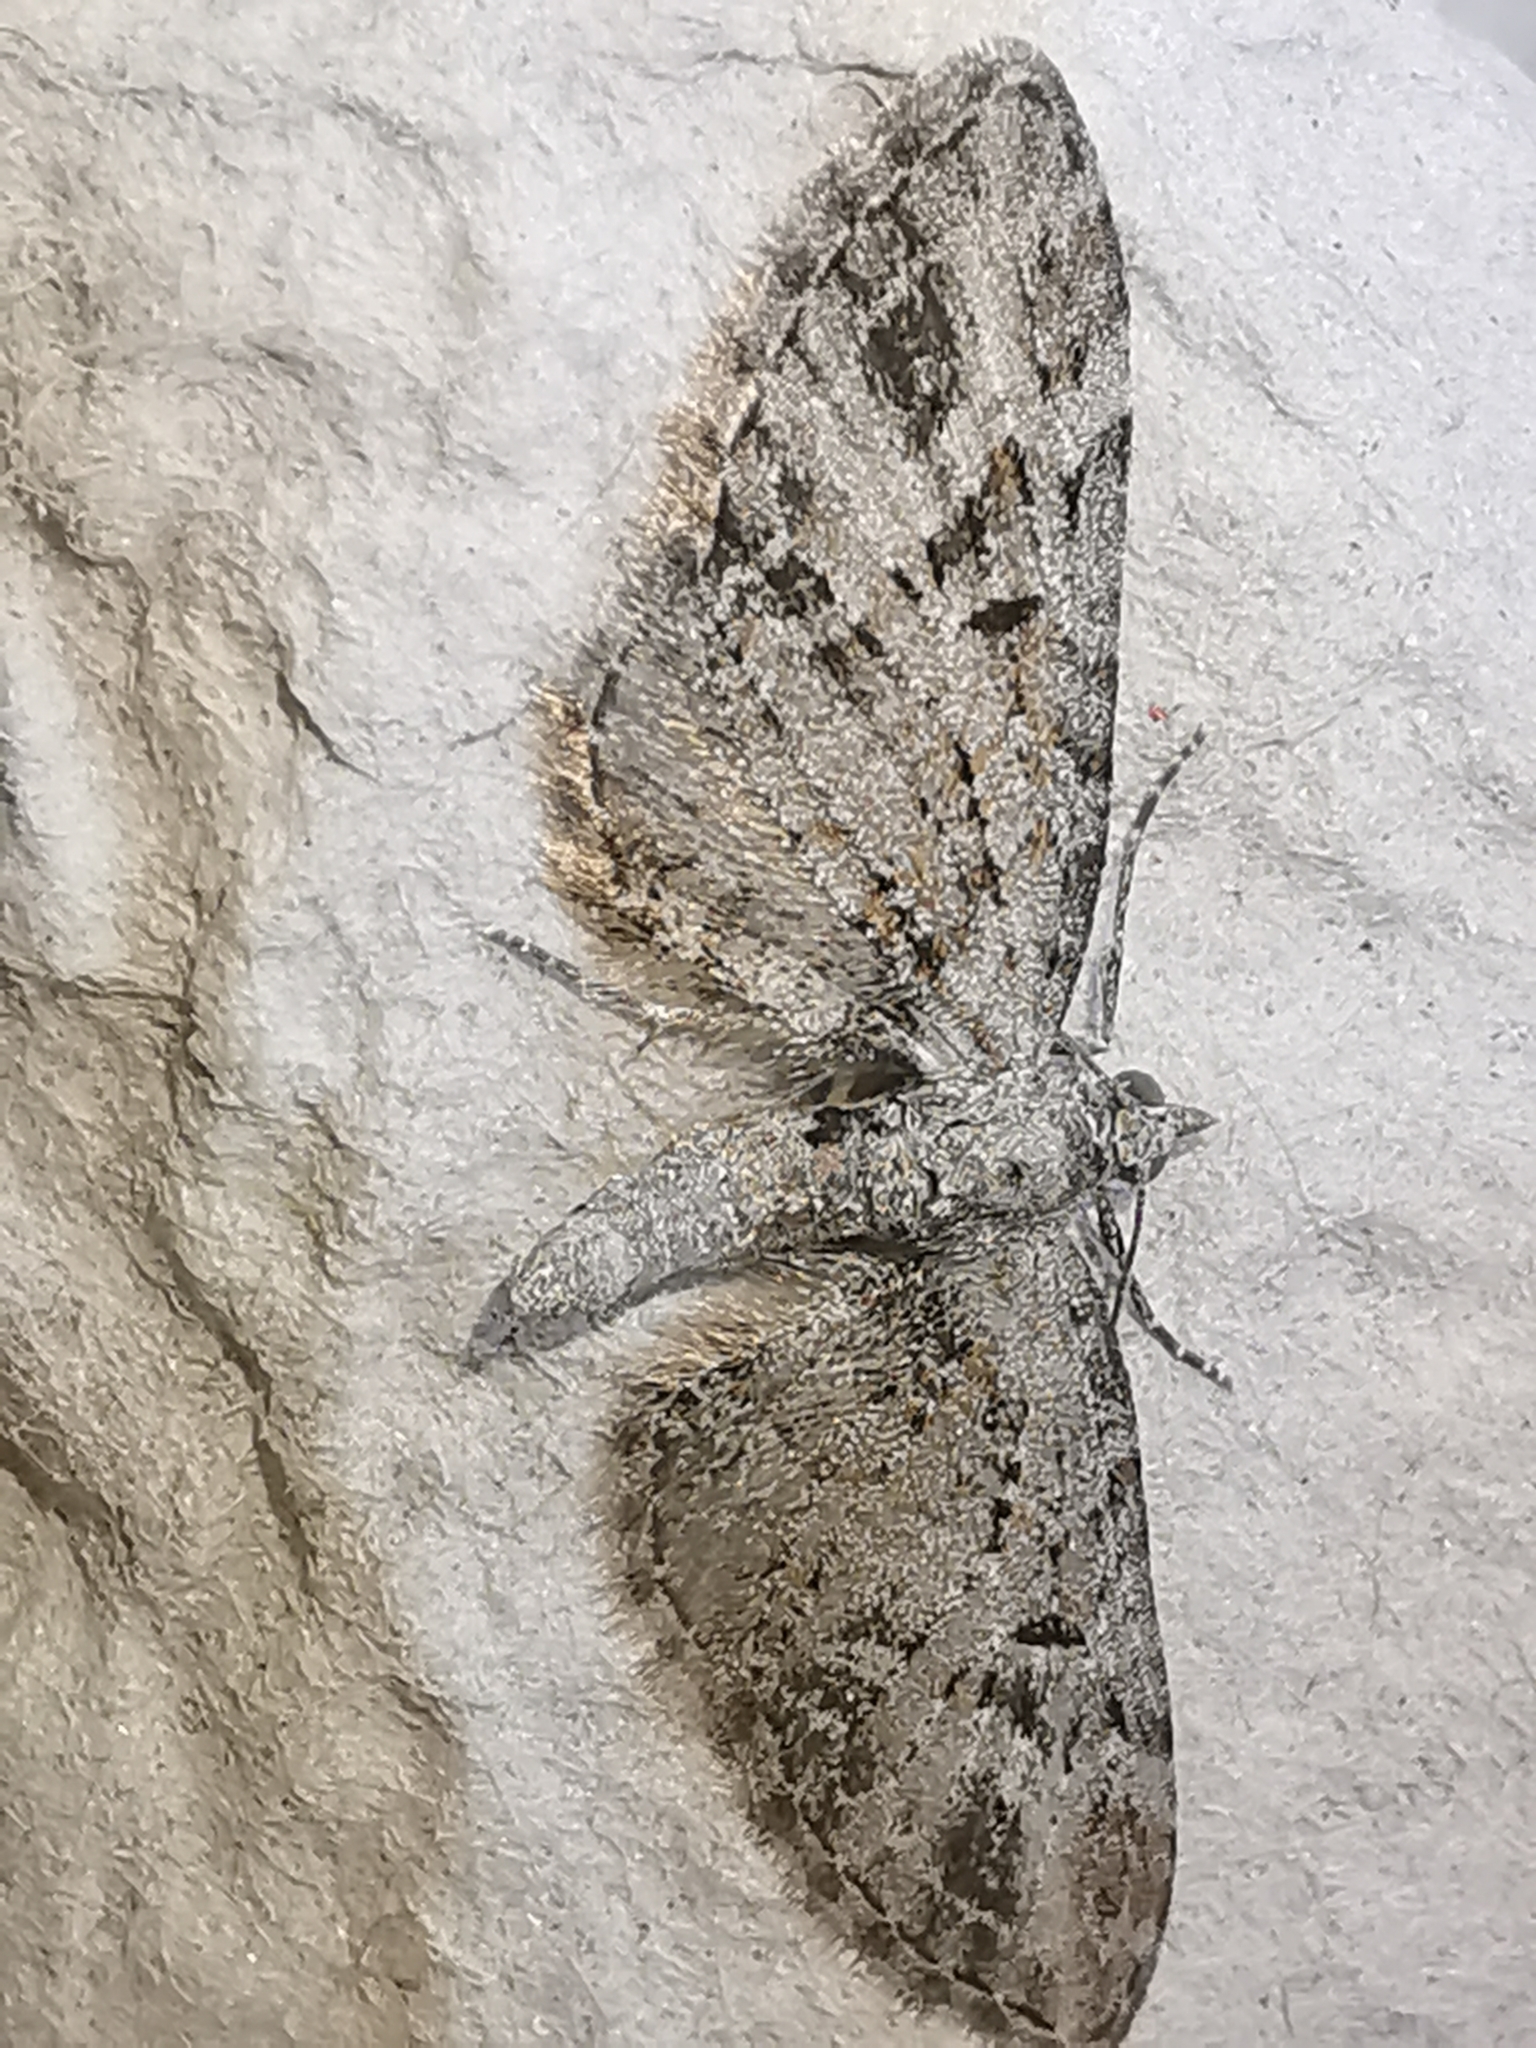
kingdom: Animalia
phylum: Arthropoda
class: Insecta
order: Lepidoptera
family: Geometridae
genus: Eupithecia
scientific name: Eupithecia exiguata
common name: Mottled pug
